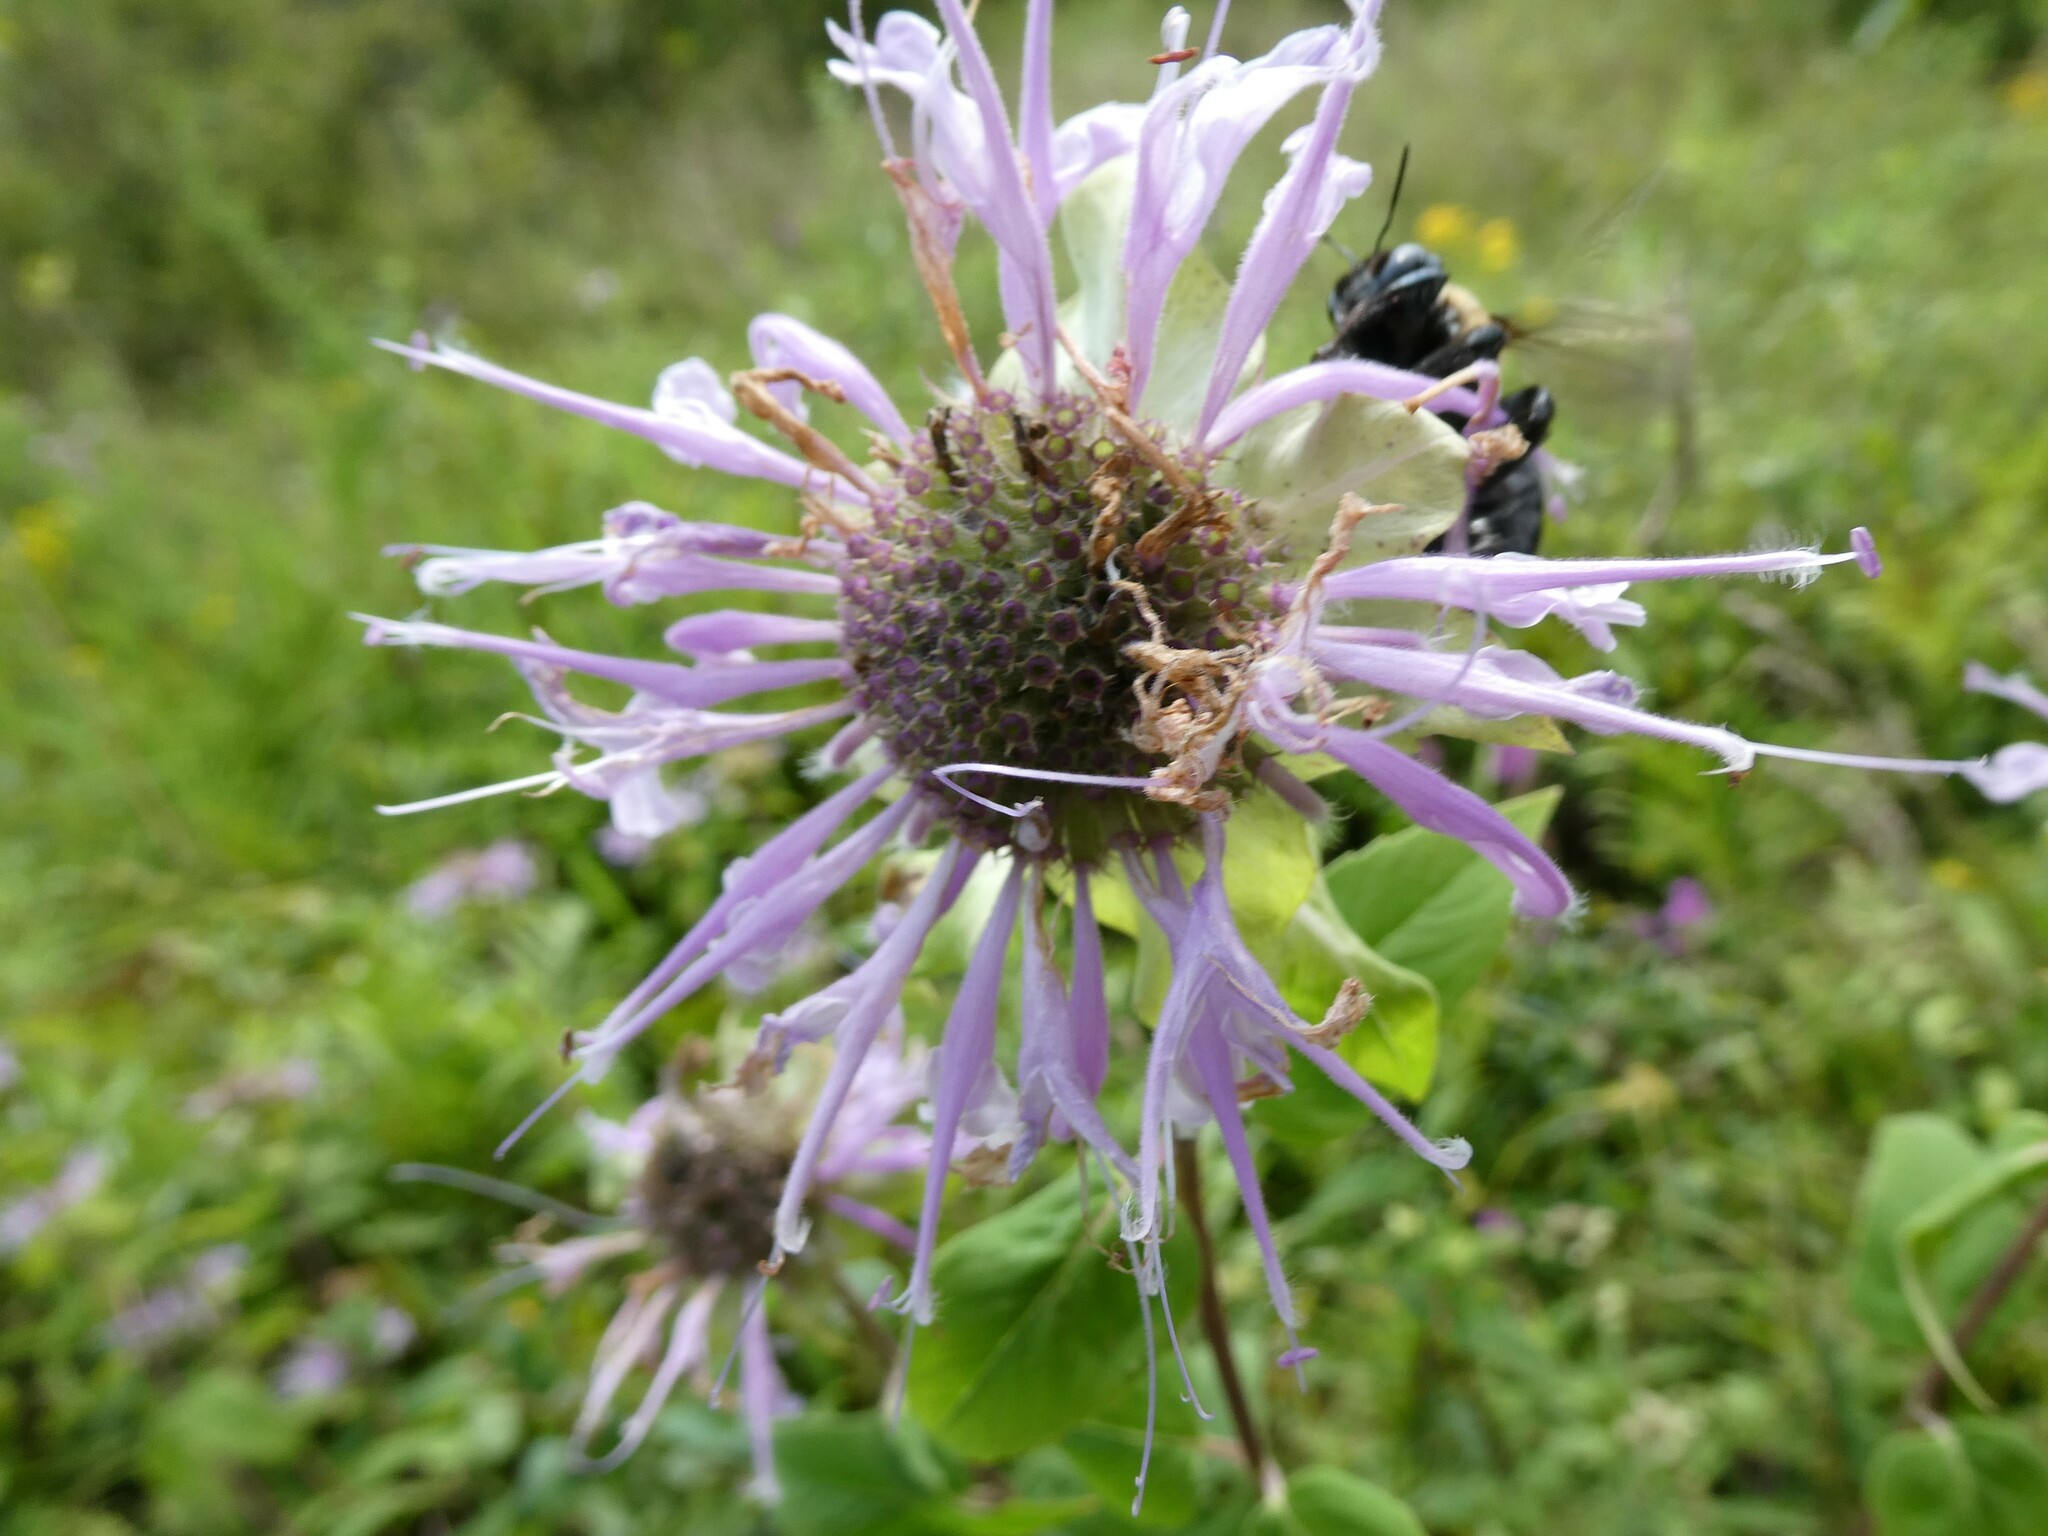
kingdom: Plantae
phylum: Tracheophyta
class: Magnoliopsida
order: Lamiales
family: Lamiaceae
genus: Monarda
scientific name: Monarda fistulosa
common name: Purple beebalm
